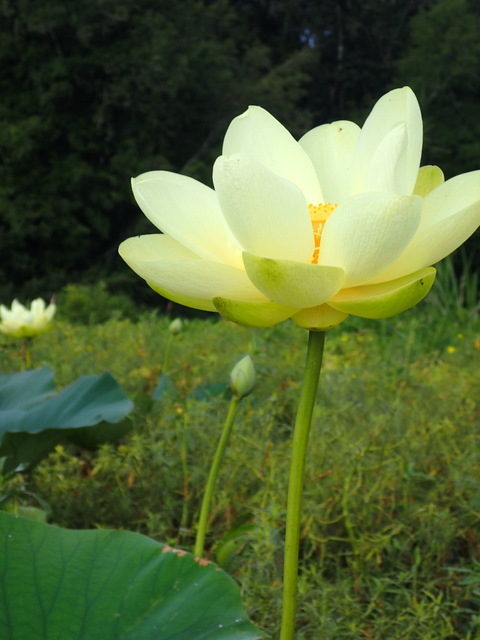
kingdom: Plantae
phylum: Tracheophyta
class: Magnoliopsida
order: Proteales
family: Nelumbonaceae
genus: Nelumbo
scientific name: Nelumbo lutea
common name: American lotus
